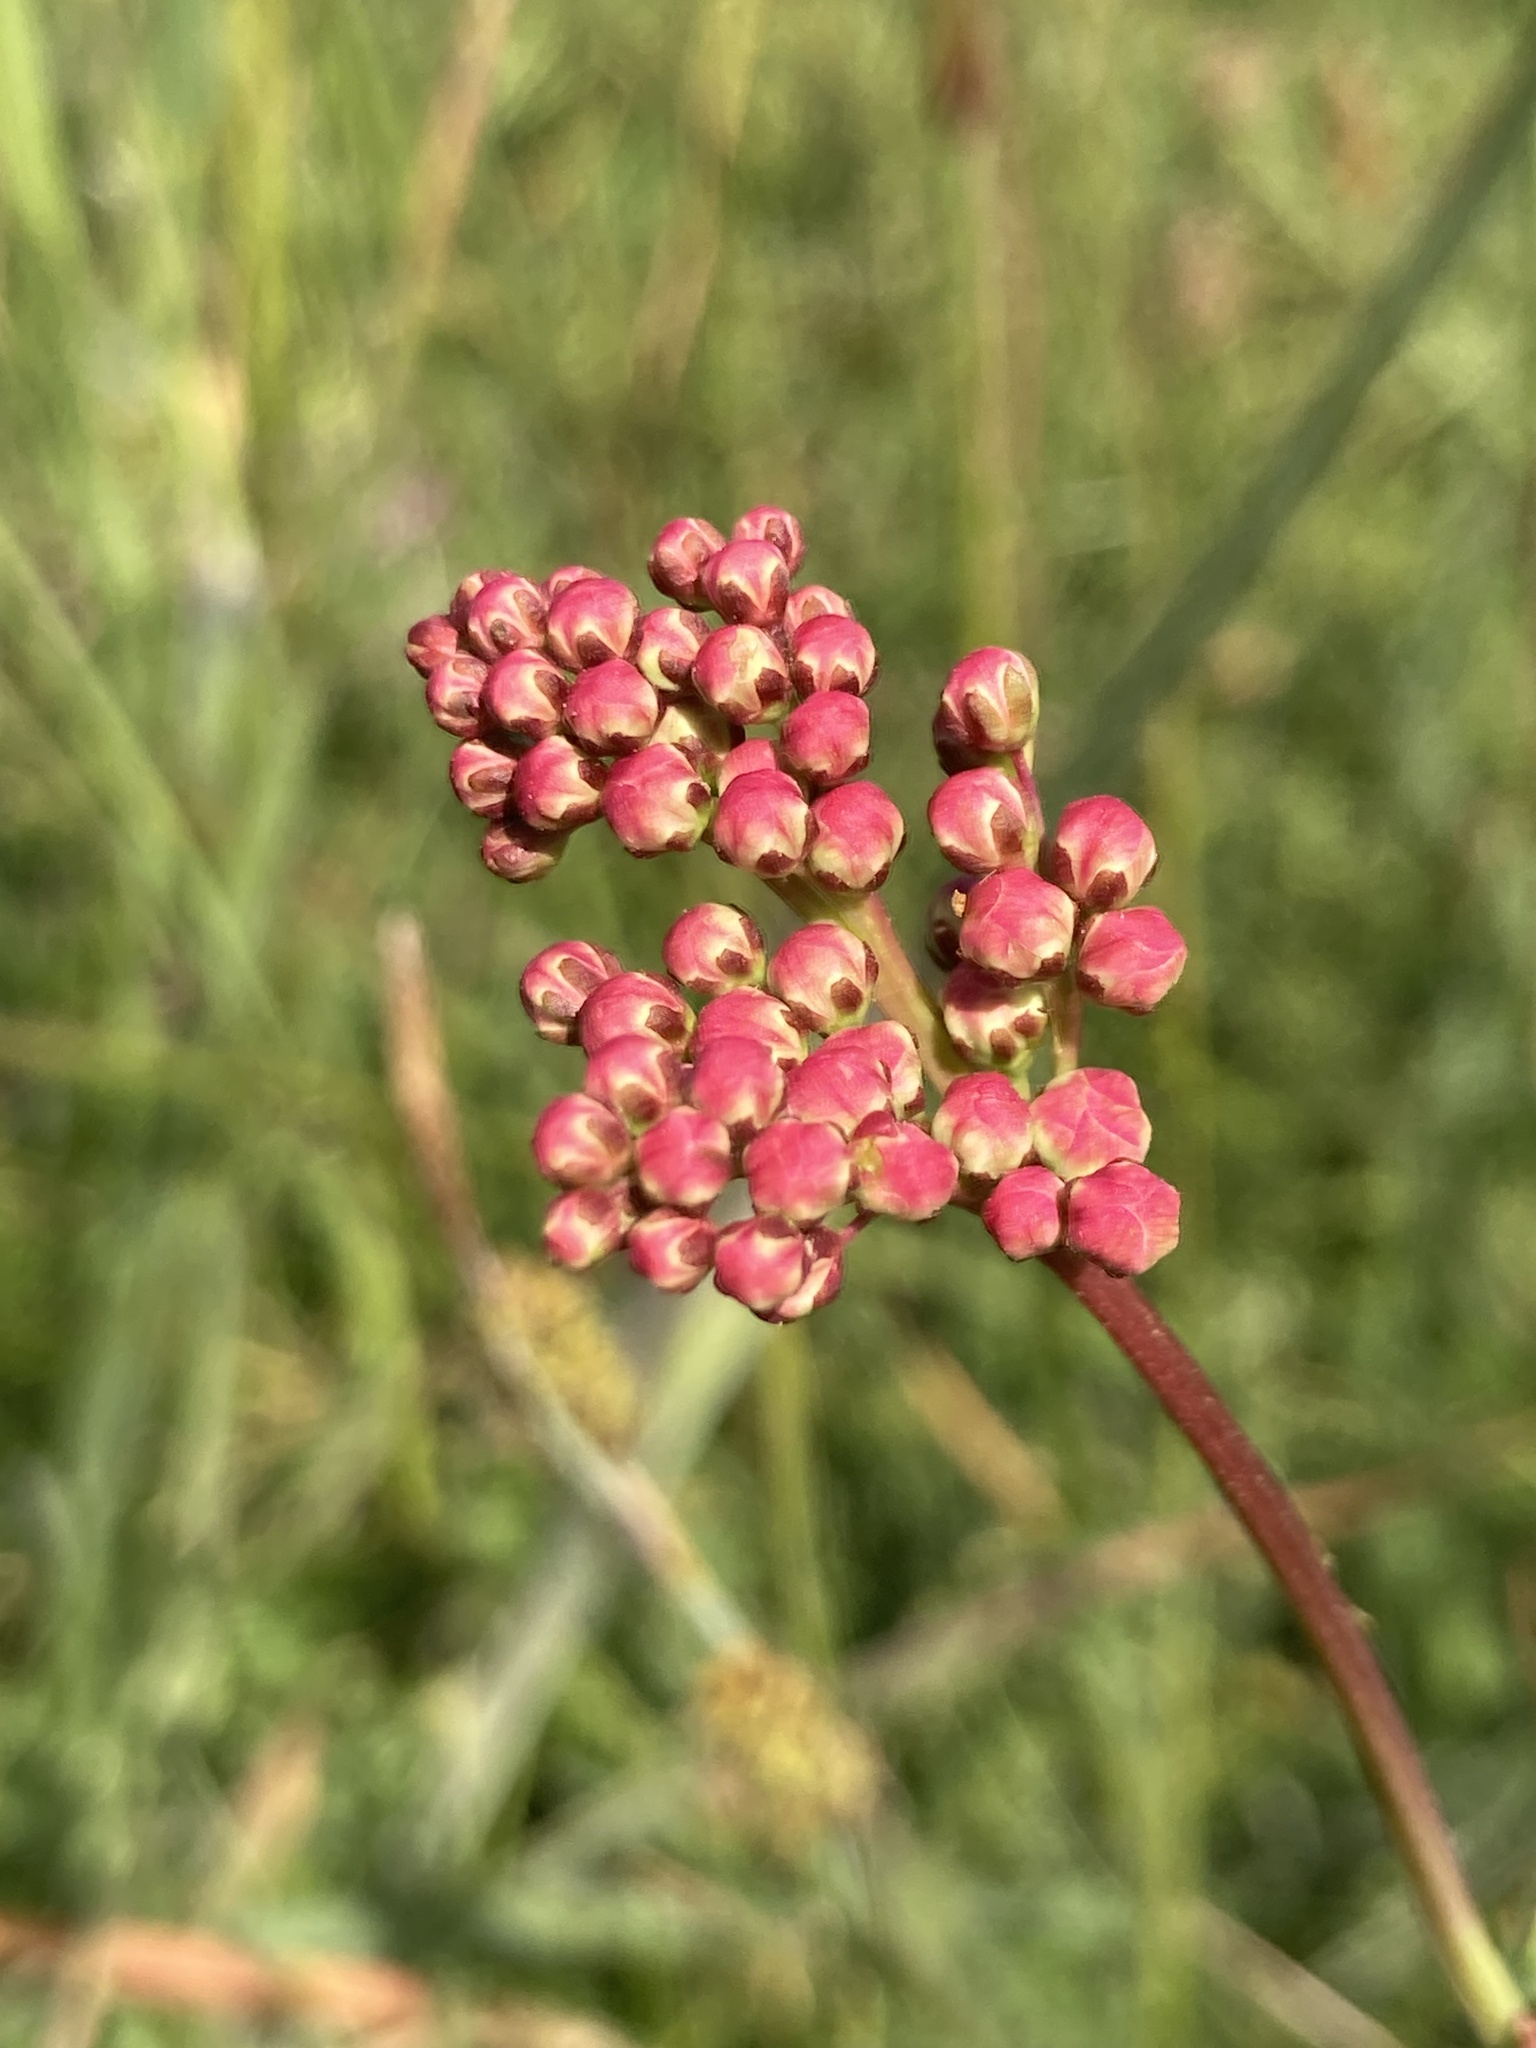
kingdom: Plantae
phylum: Tracheophyta
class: Magnoliopsida
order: Rosales
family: Rosaceae
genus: Filipendula
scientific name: Filipendula vulgaris
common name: Dropwort
